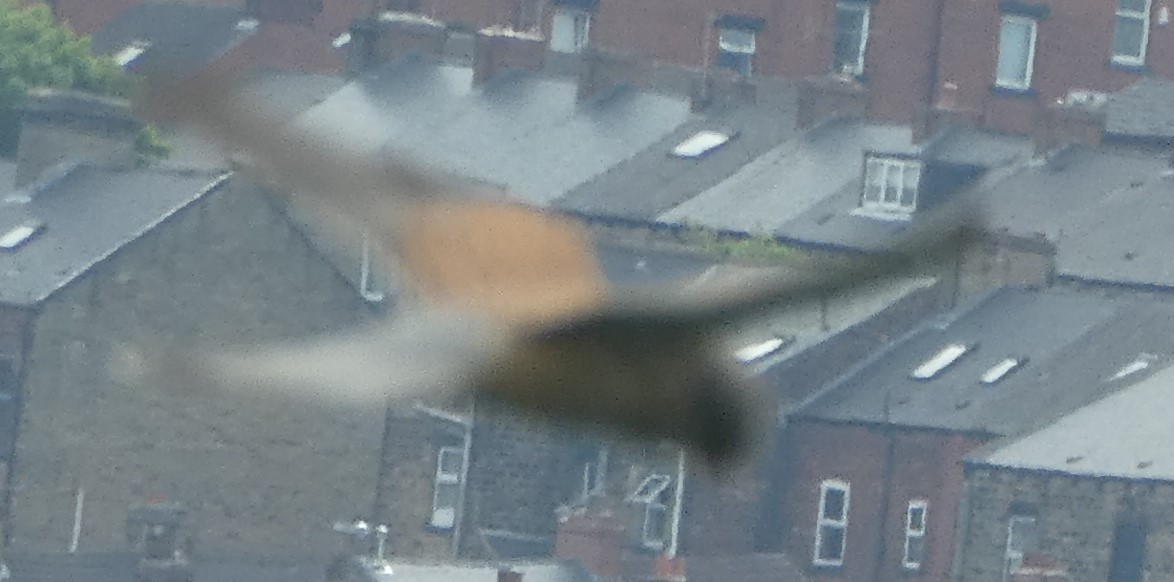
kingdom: Animalia
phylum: Chordata
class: Aves
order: Falconiformes
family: Falconidae
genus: Falco
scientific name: Falco tinnunculus
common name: Common kestrel
